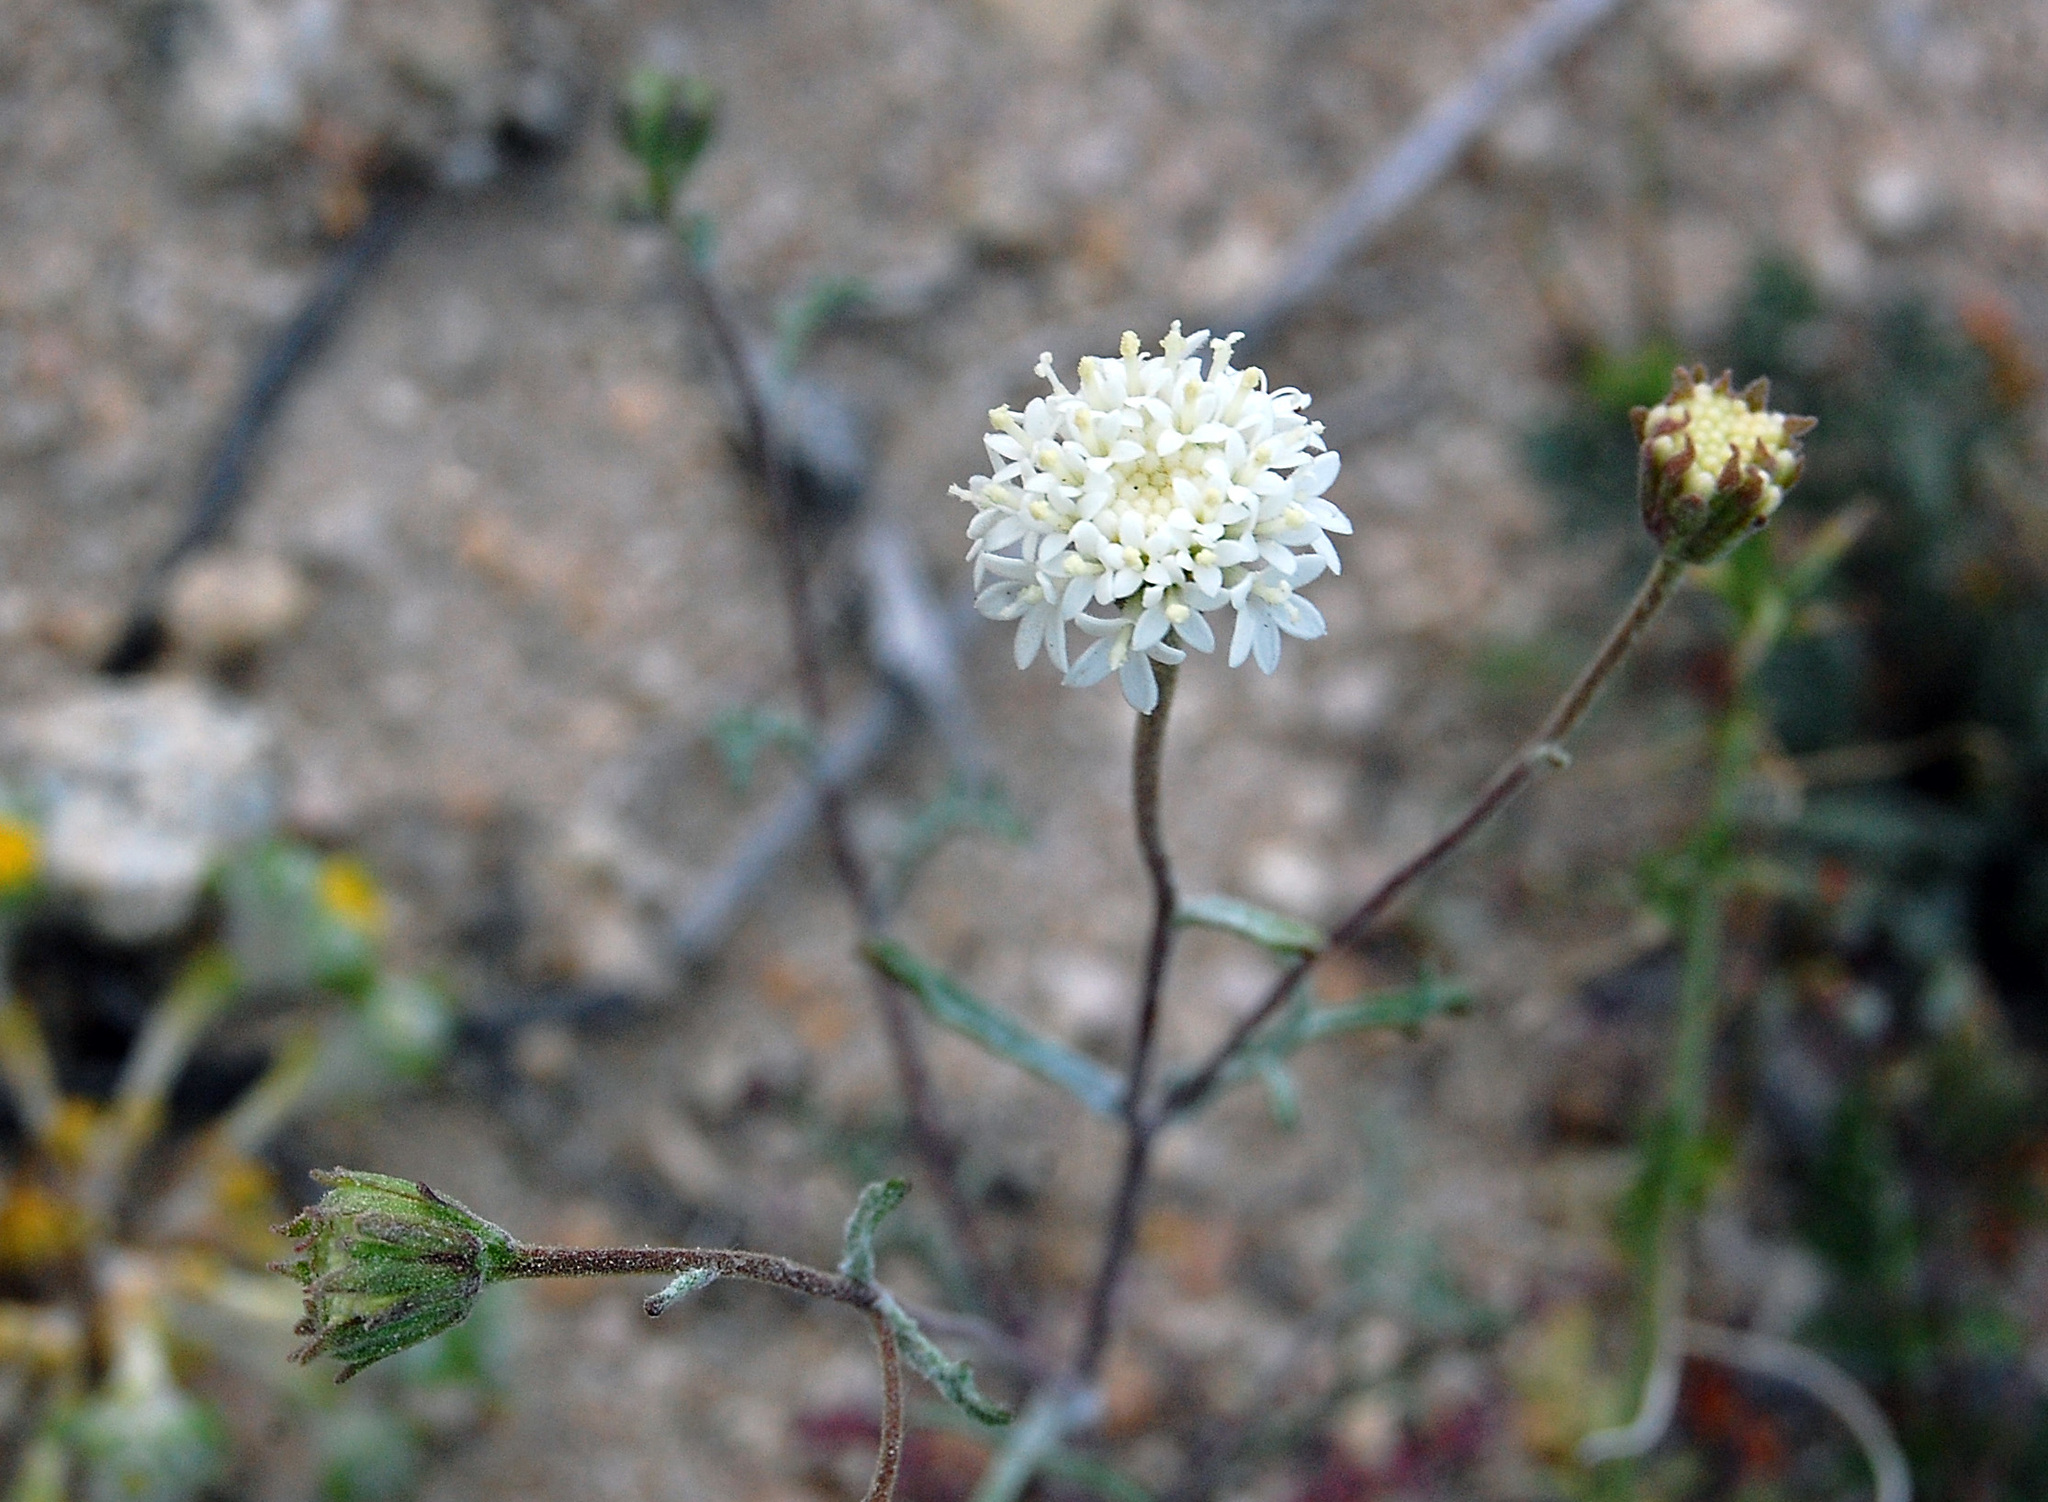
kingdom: Plantae
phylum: Tracheophyta
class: Magnoliopsida
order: Asterales
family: Asteraceae
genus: Chaenactis
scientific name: Chaenactis stevioides
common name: Desert pincushion
